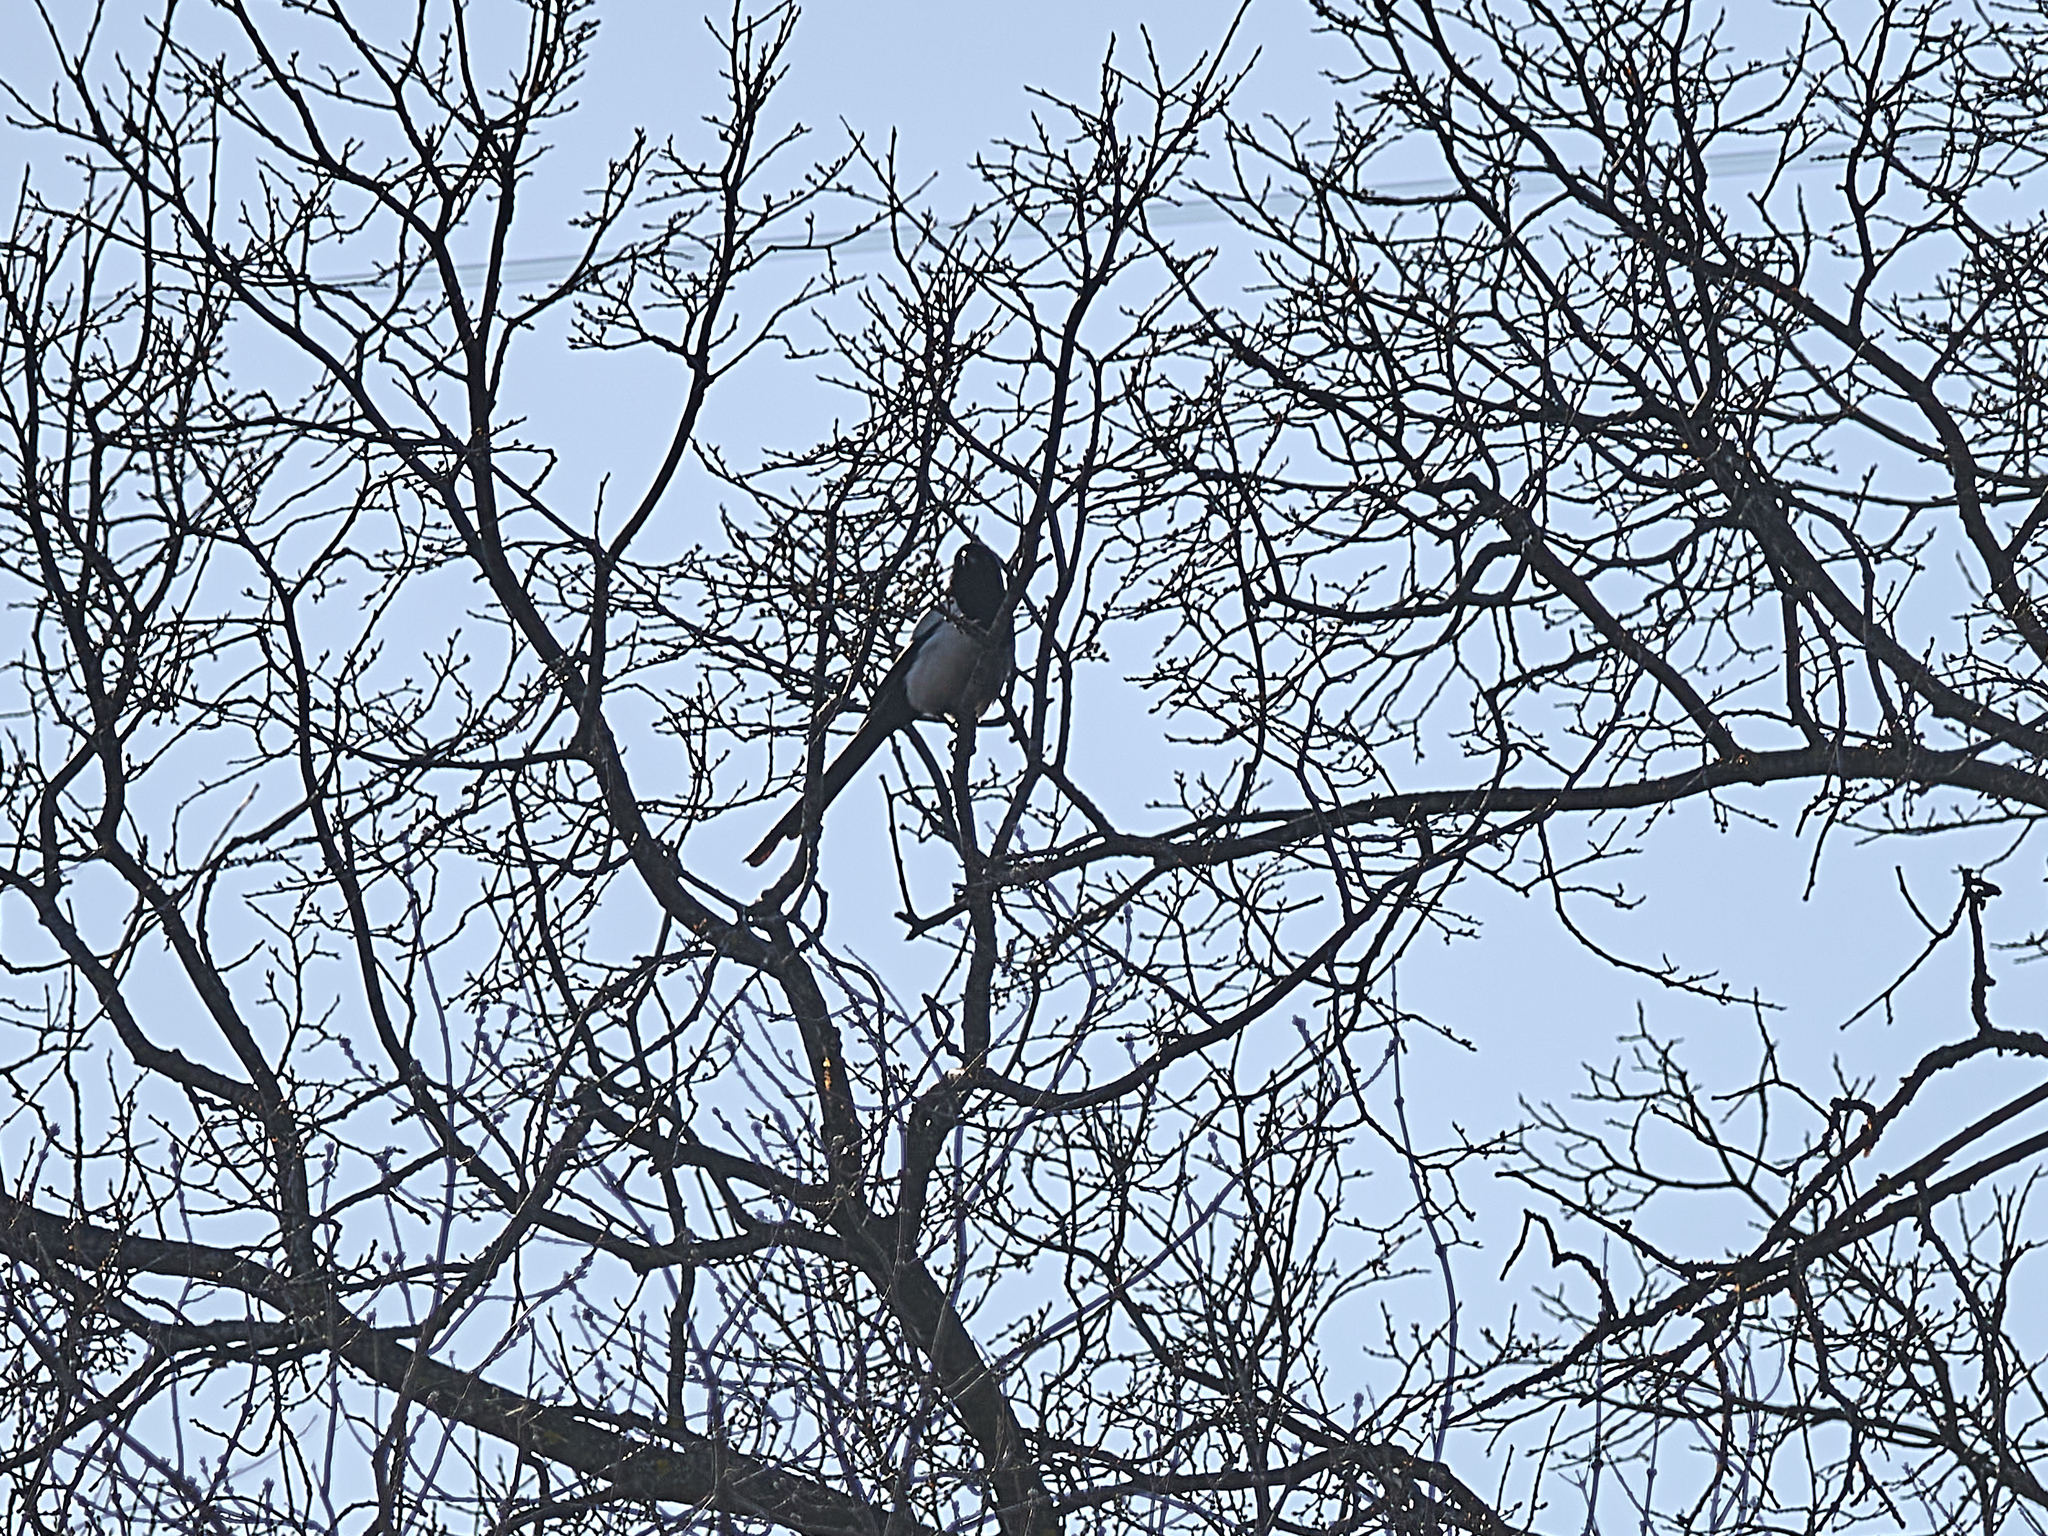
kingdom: Animalia
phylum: Chordata
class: Aves
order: Passeriformes
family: Corvidae
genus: Pica
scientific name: Pica pica
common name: Eurasian magpie
